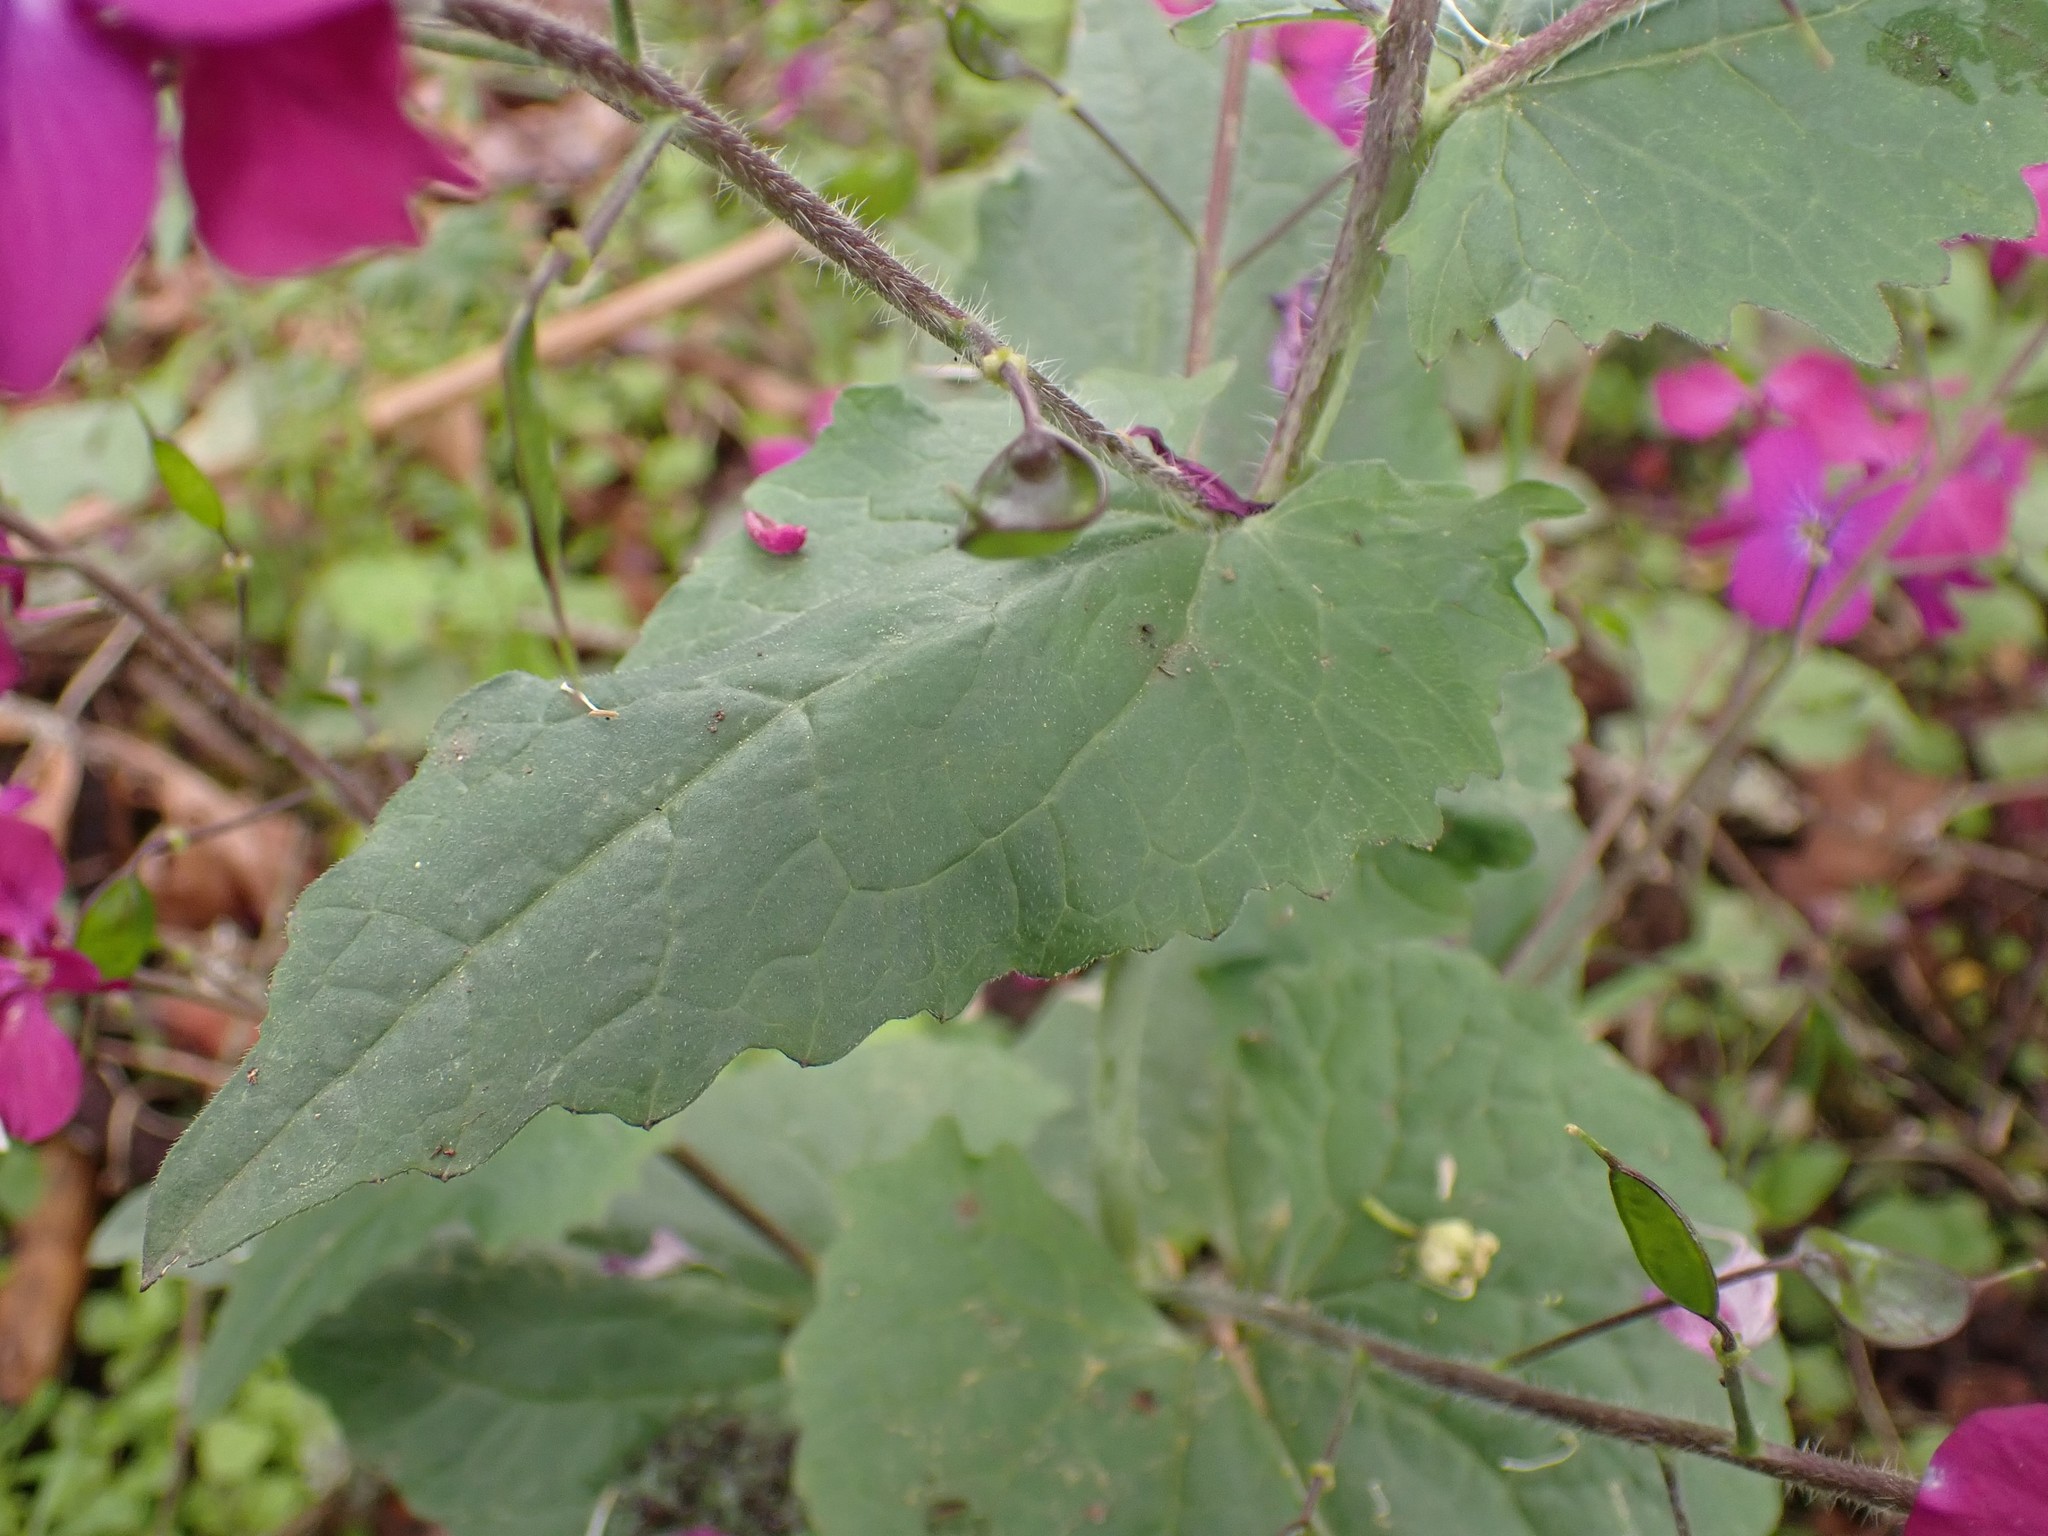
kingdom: Plantae
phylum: Tracheophyta
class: Magnoliopsida
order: Brassicales
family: Brassicaceae
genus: Lunaria
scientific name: Lunaria annua
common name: Honesty
